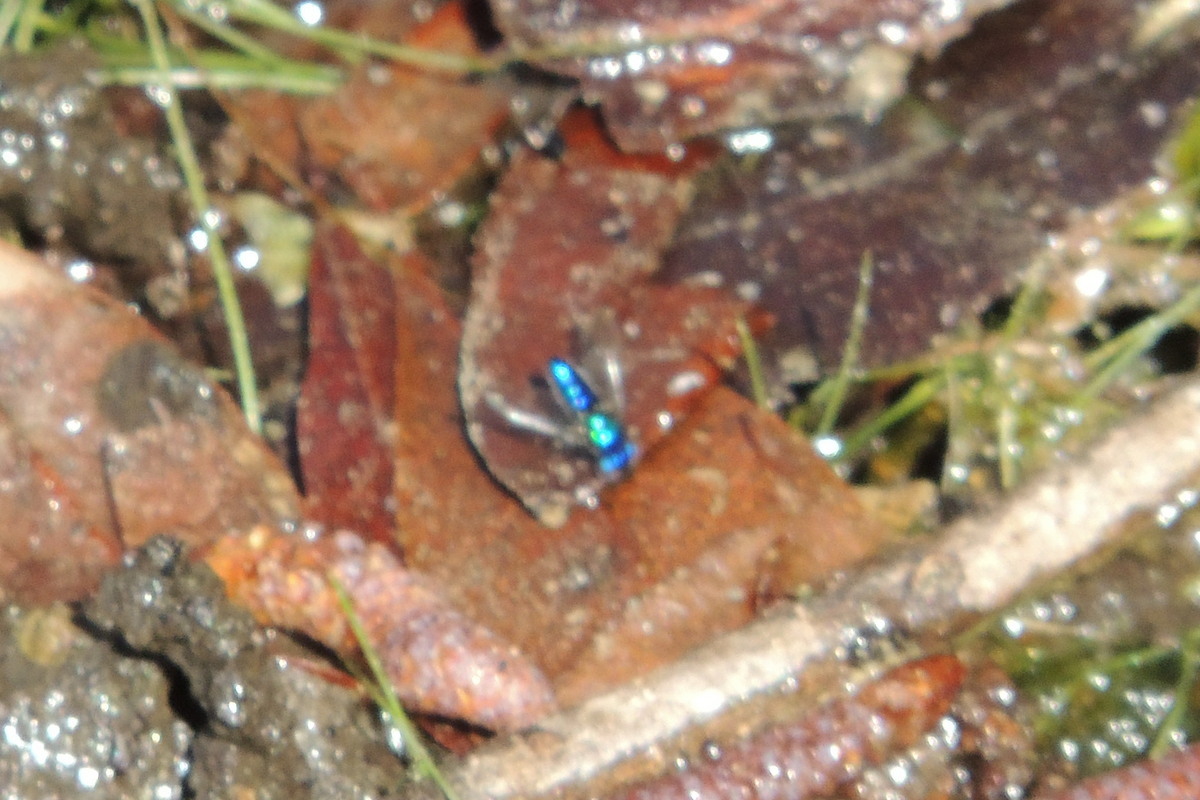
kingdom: Animalia
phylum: Arthropoda
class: Insecta
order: Diptera
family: Dolichopodidae
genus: Condylostylus
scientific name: Condylostylus mundus
